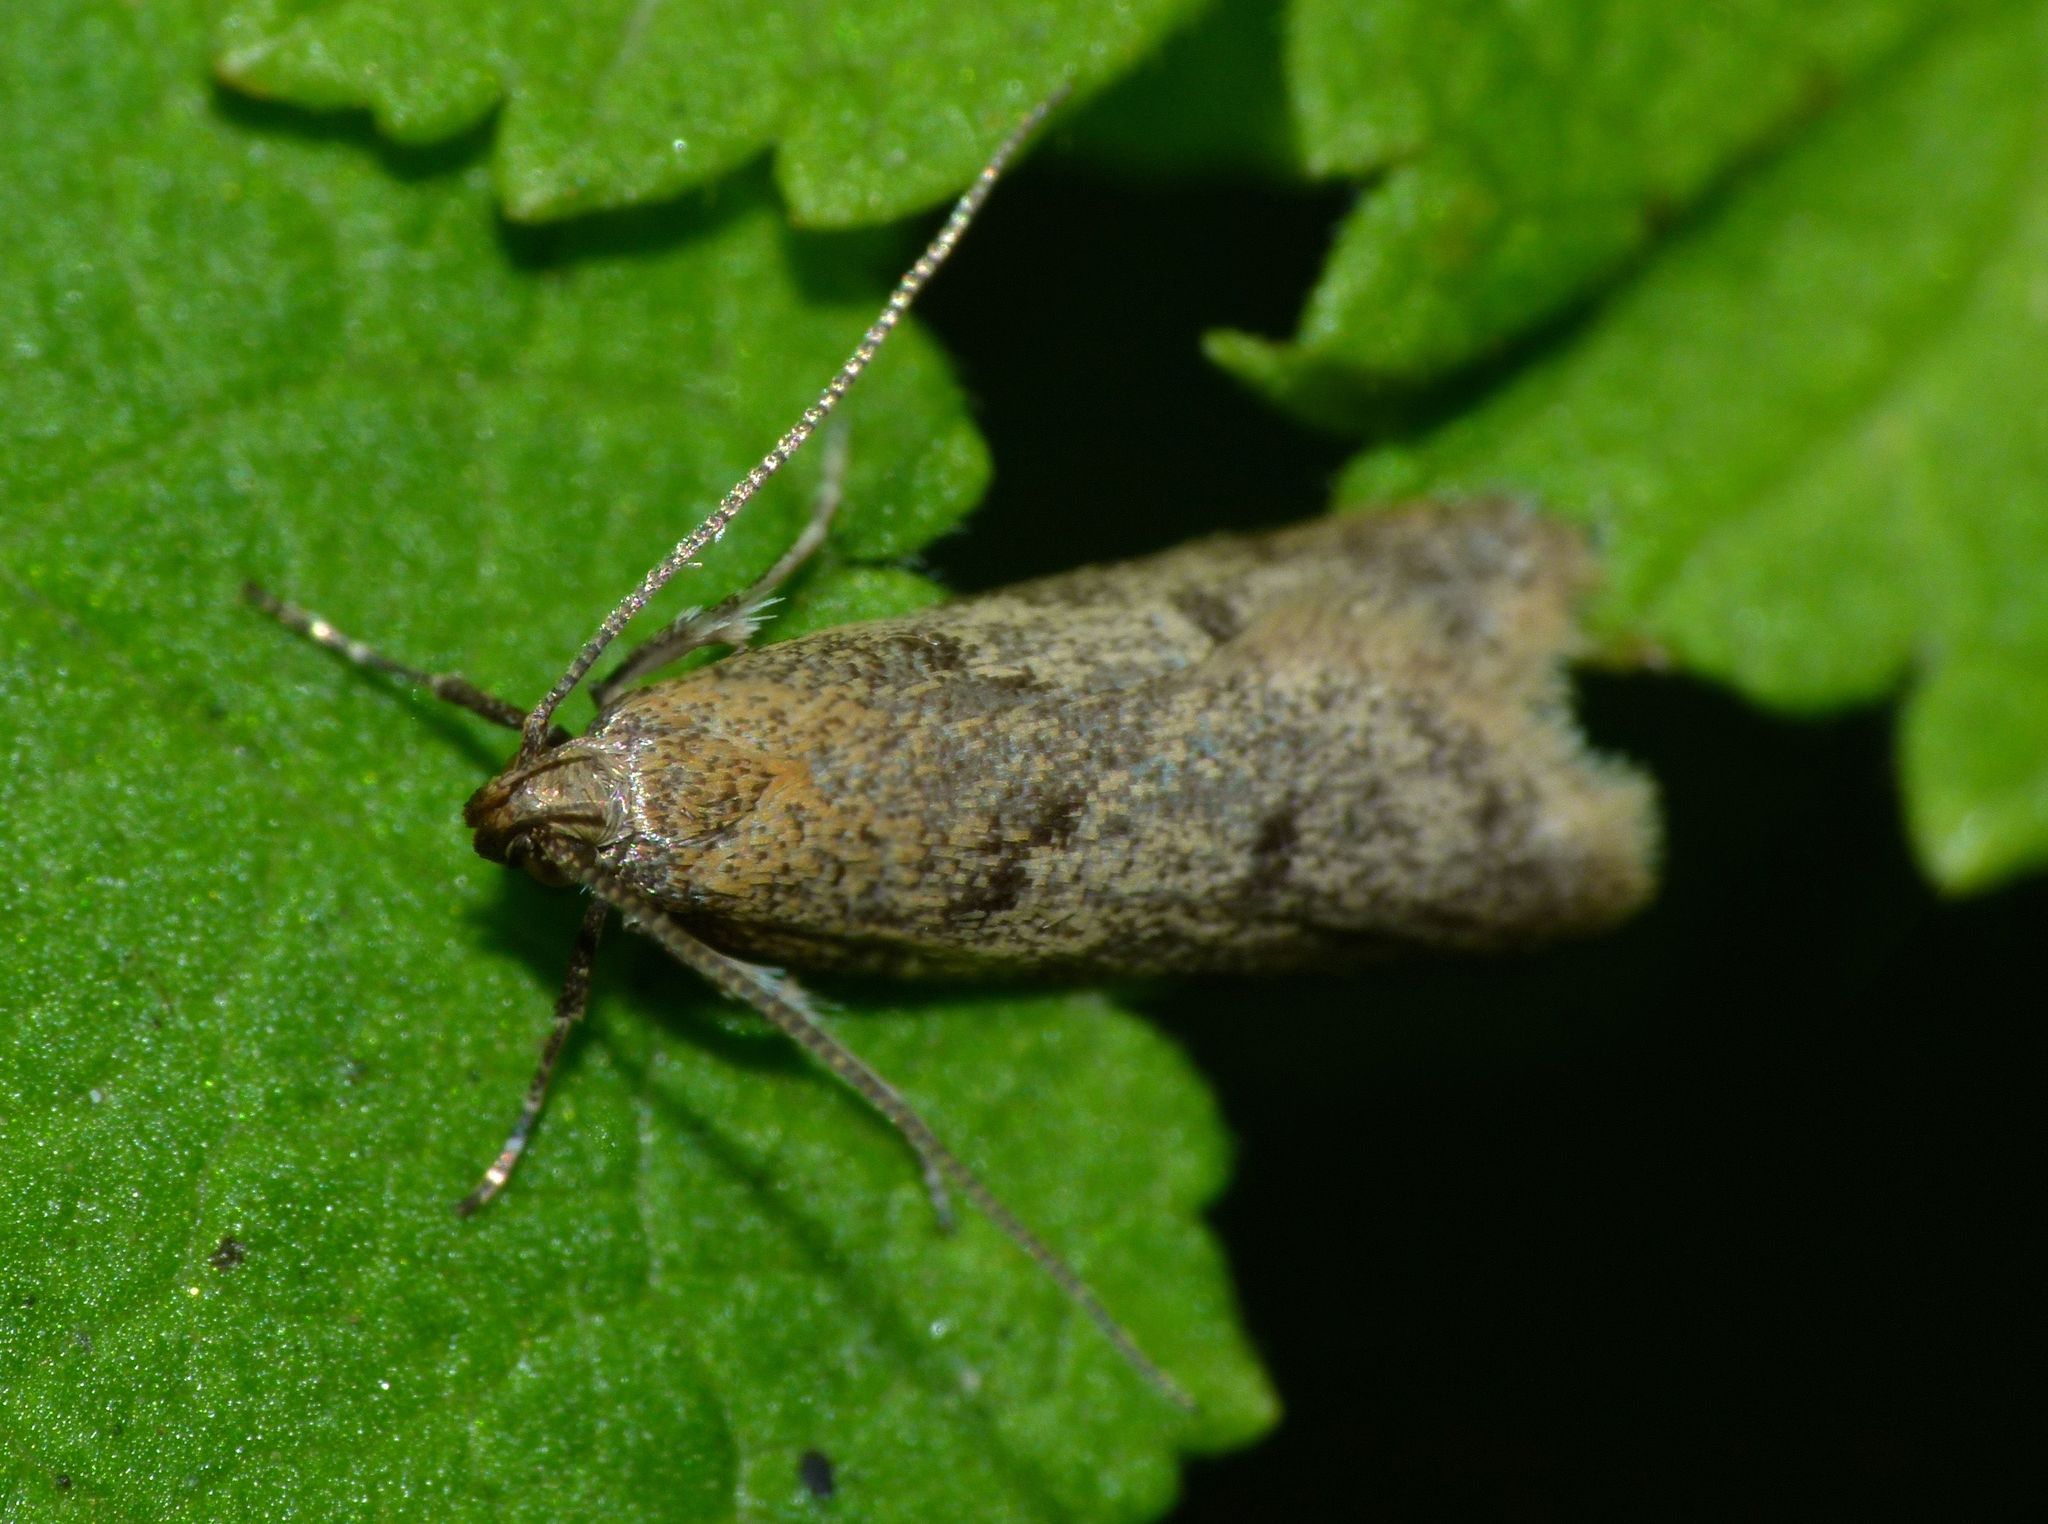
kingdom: Animalia
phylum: Arthropoda
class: Insecta
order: Lepidoptera
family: Oecophoridae
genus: Gymnobathra
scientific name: Gymnobathra tholodella
